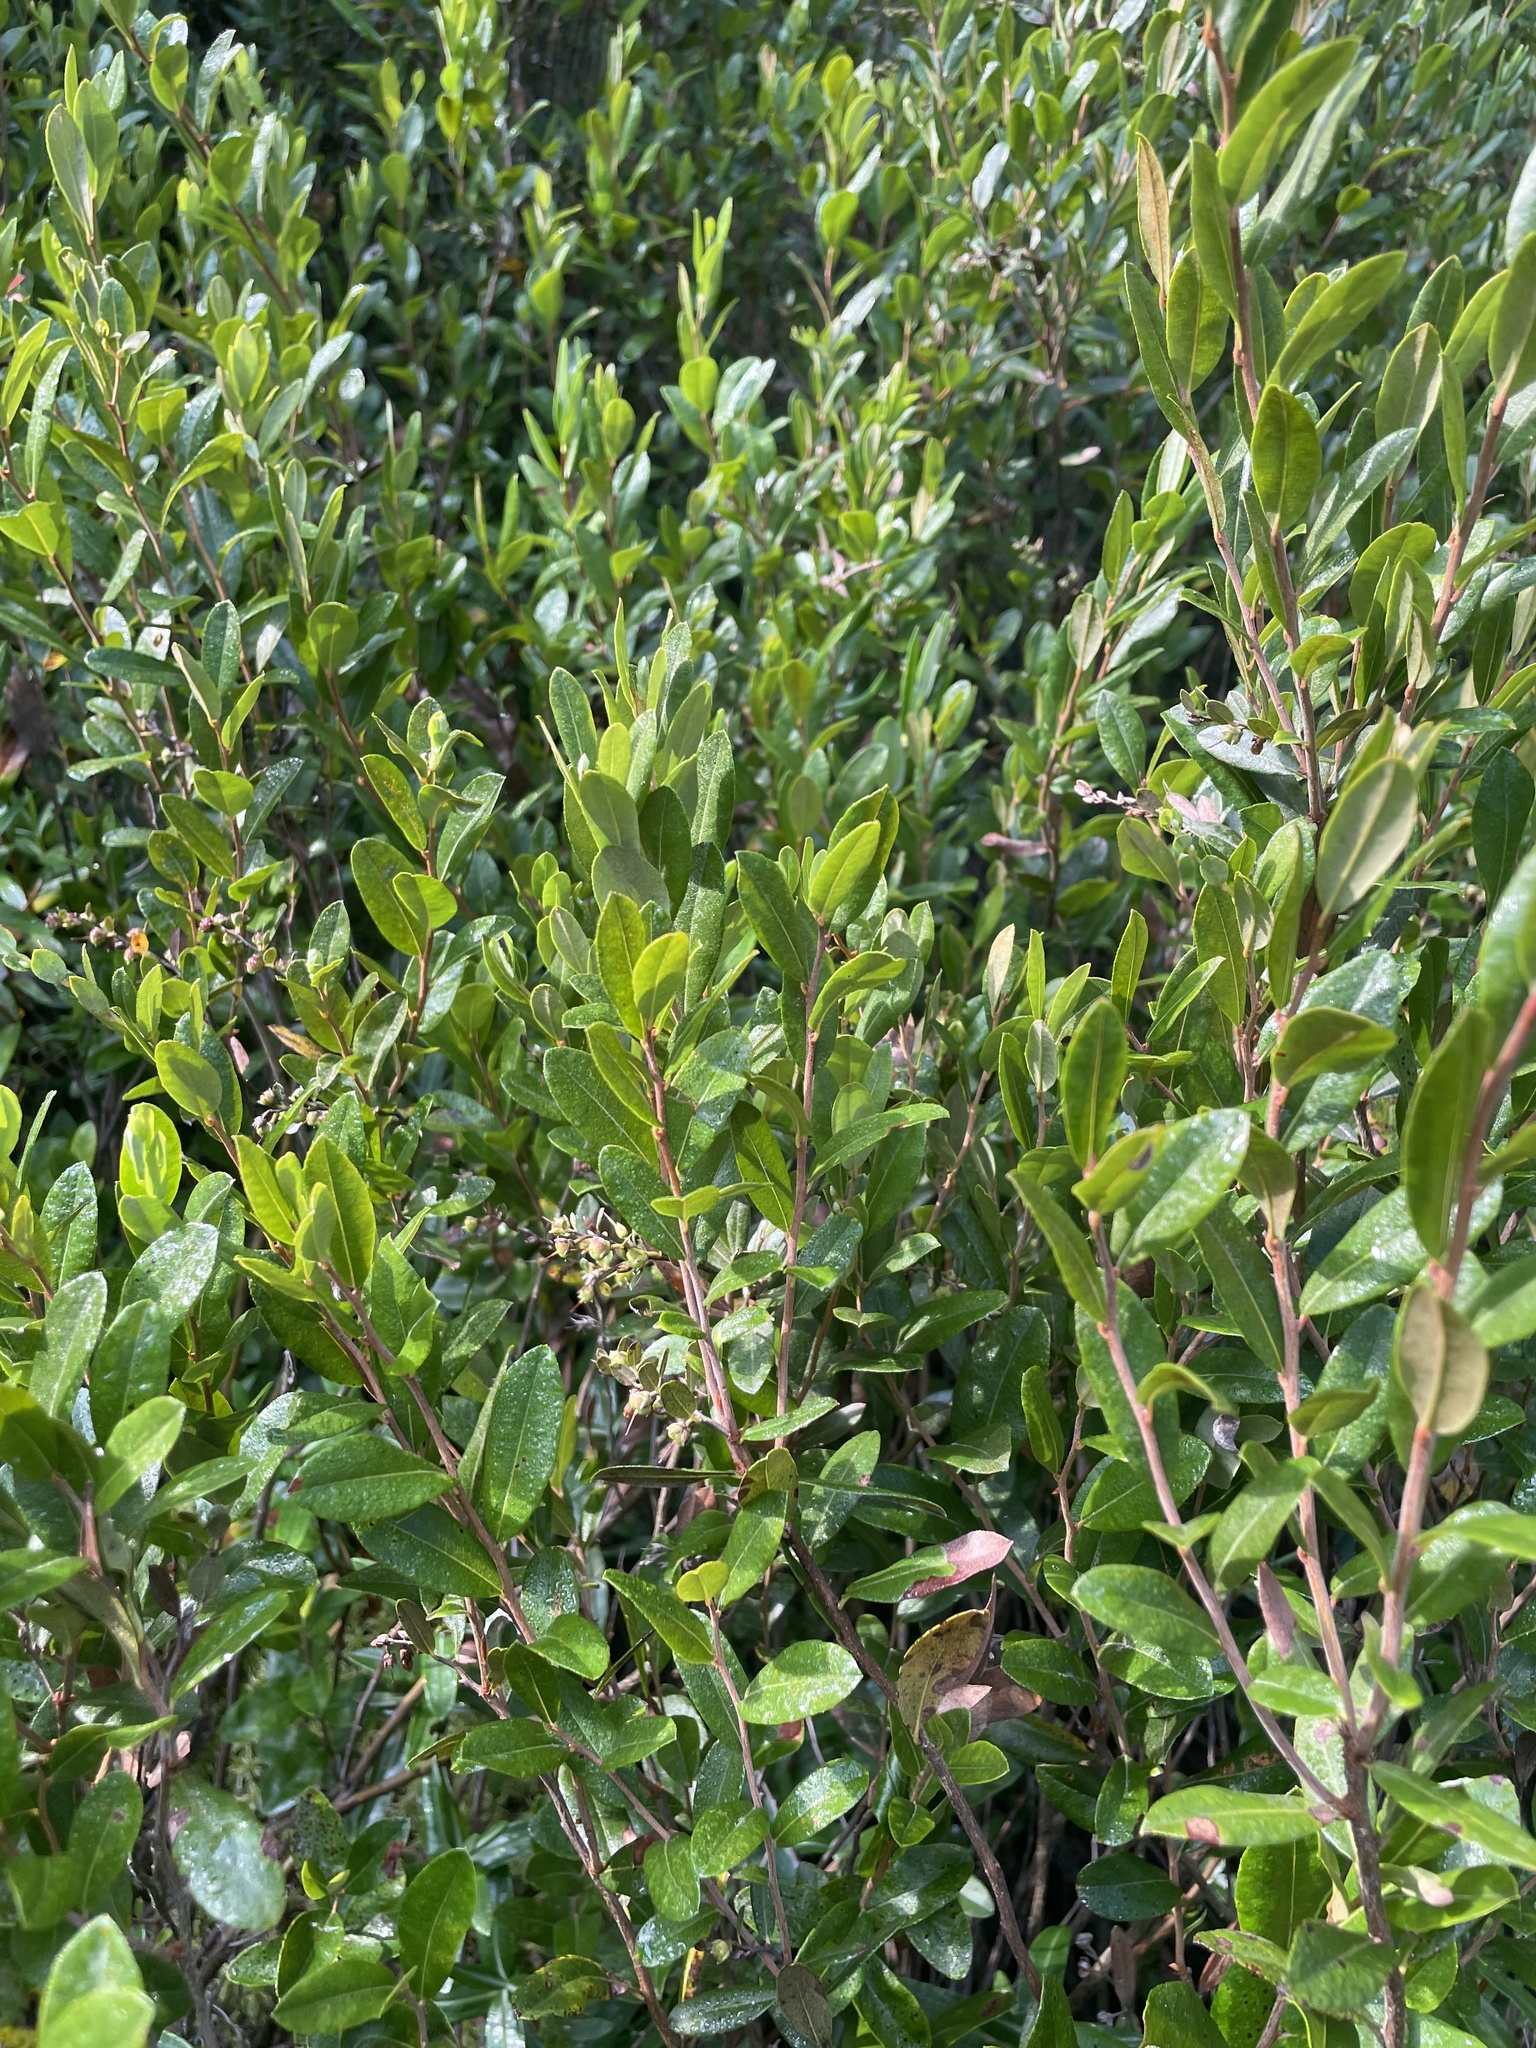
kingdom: Plantae
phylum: Tracheophyta
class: Magnoliopsida
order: Ericales
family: Ericaceae
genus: Chamaedaphne
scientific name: Chamaedaphne calyculata
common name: Leatherleaf
